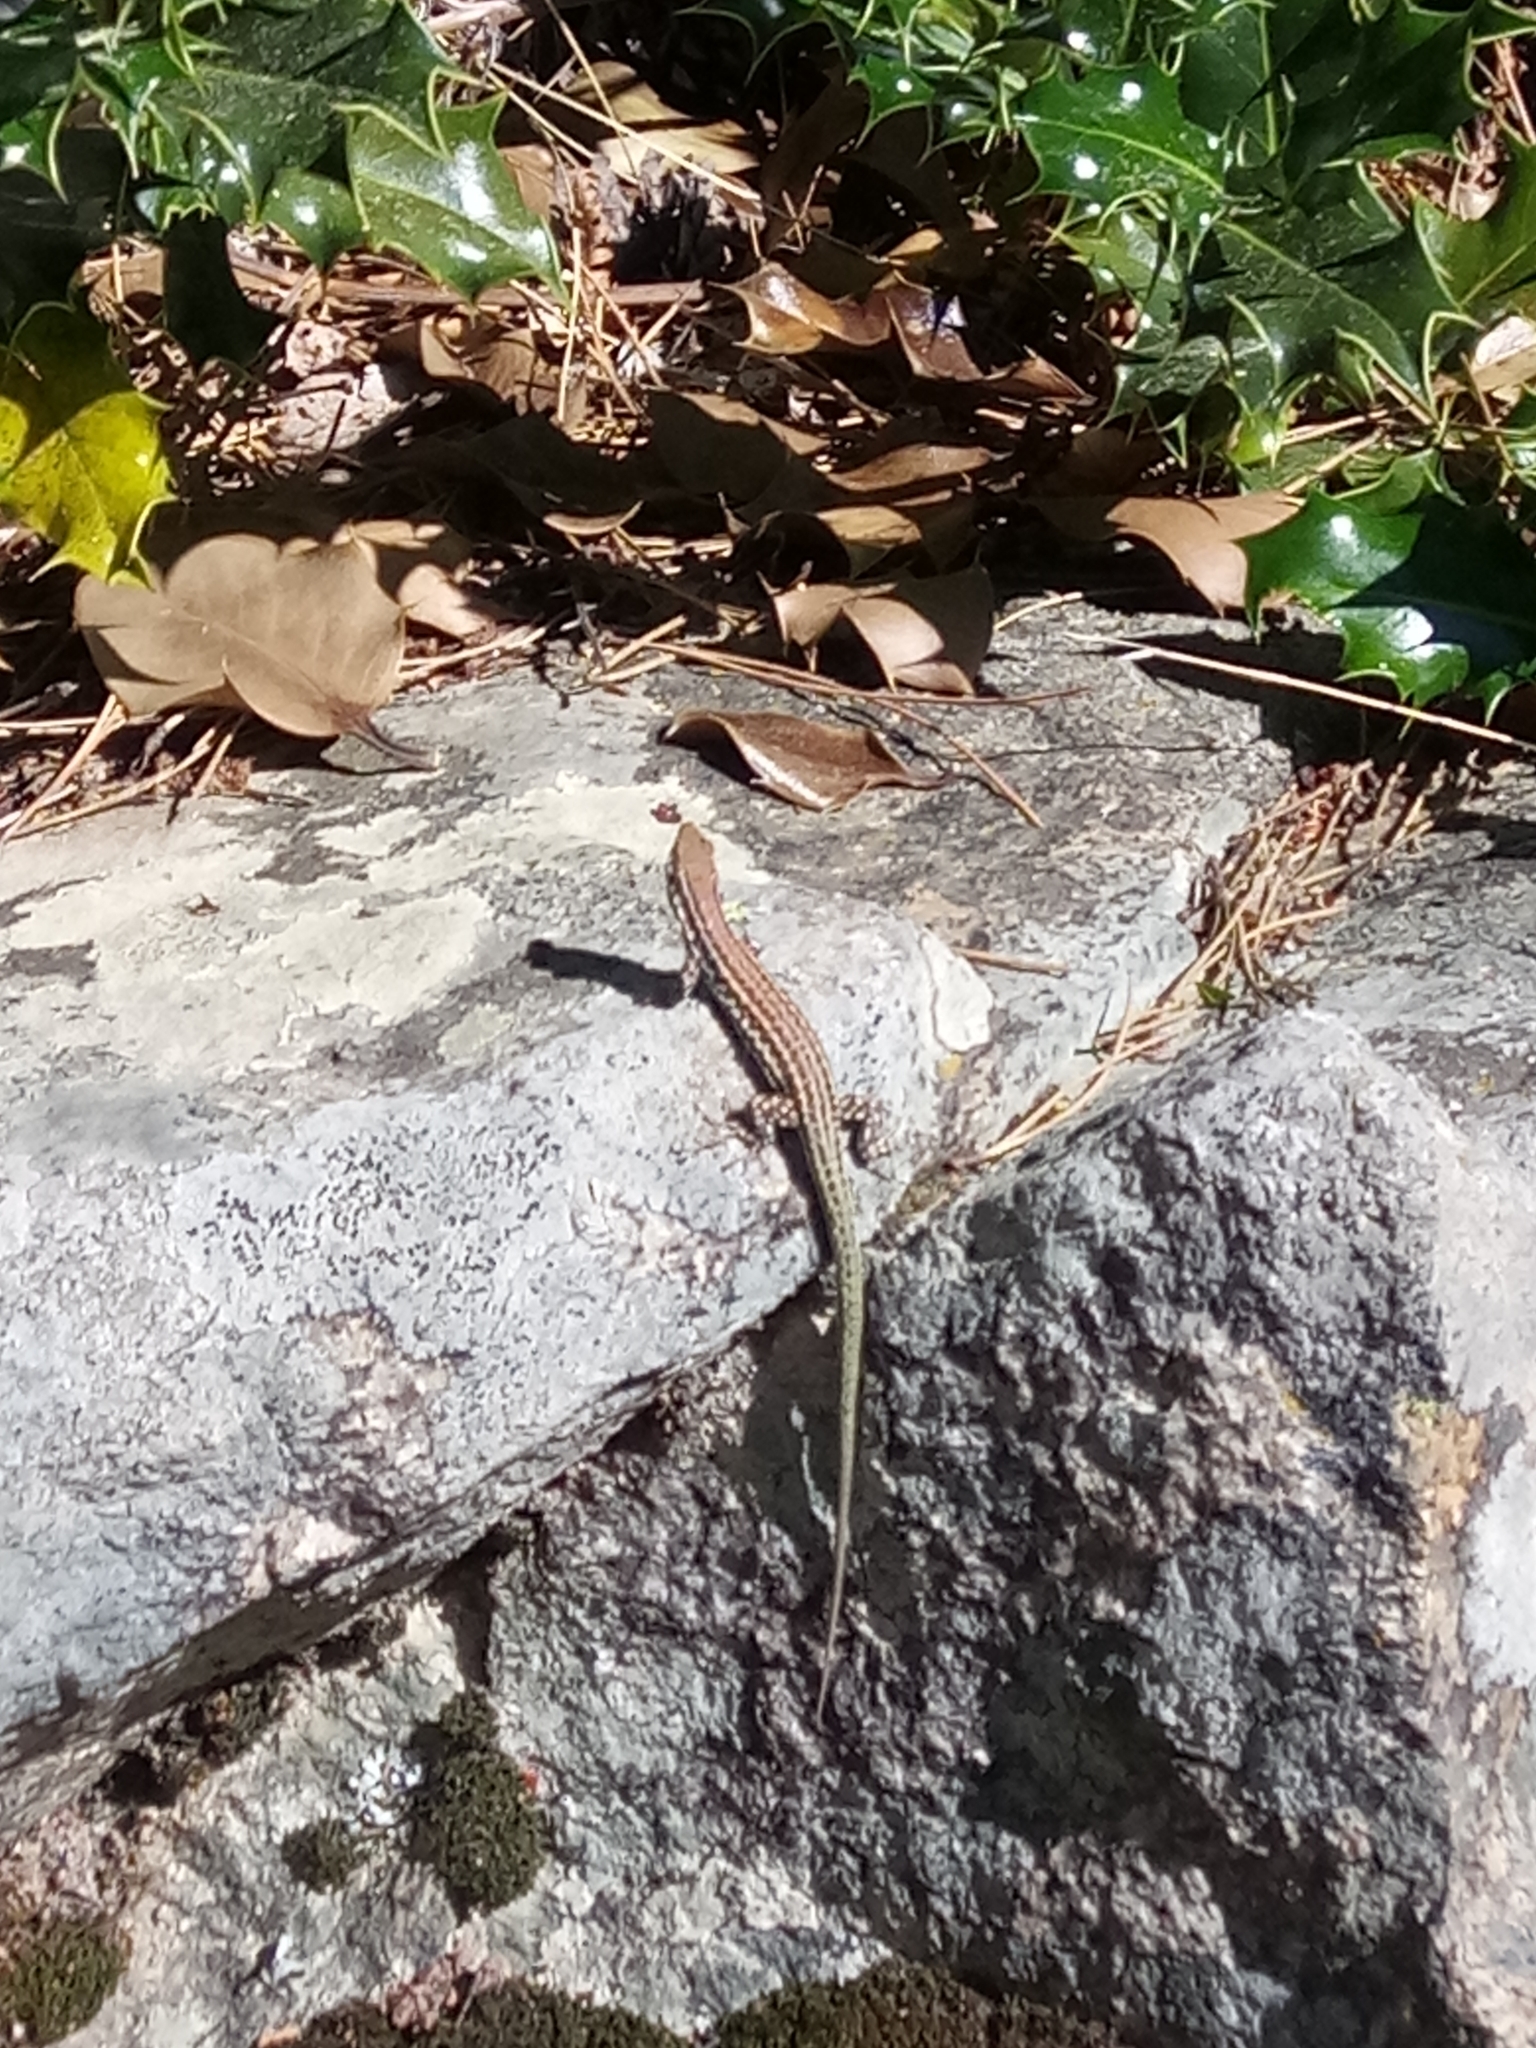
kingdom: Animalia
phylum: Chordata
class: Squamata
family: Lacertidae
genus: Podarcis
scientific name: Podarcis tiliguerta
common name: Tyrrhenian wall lizard
